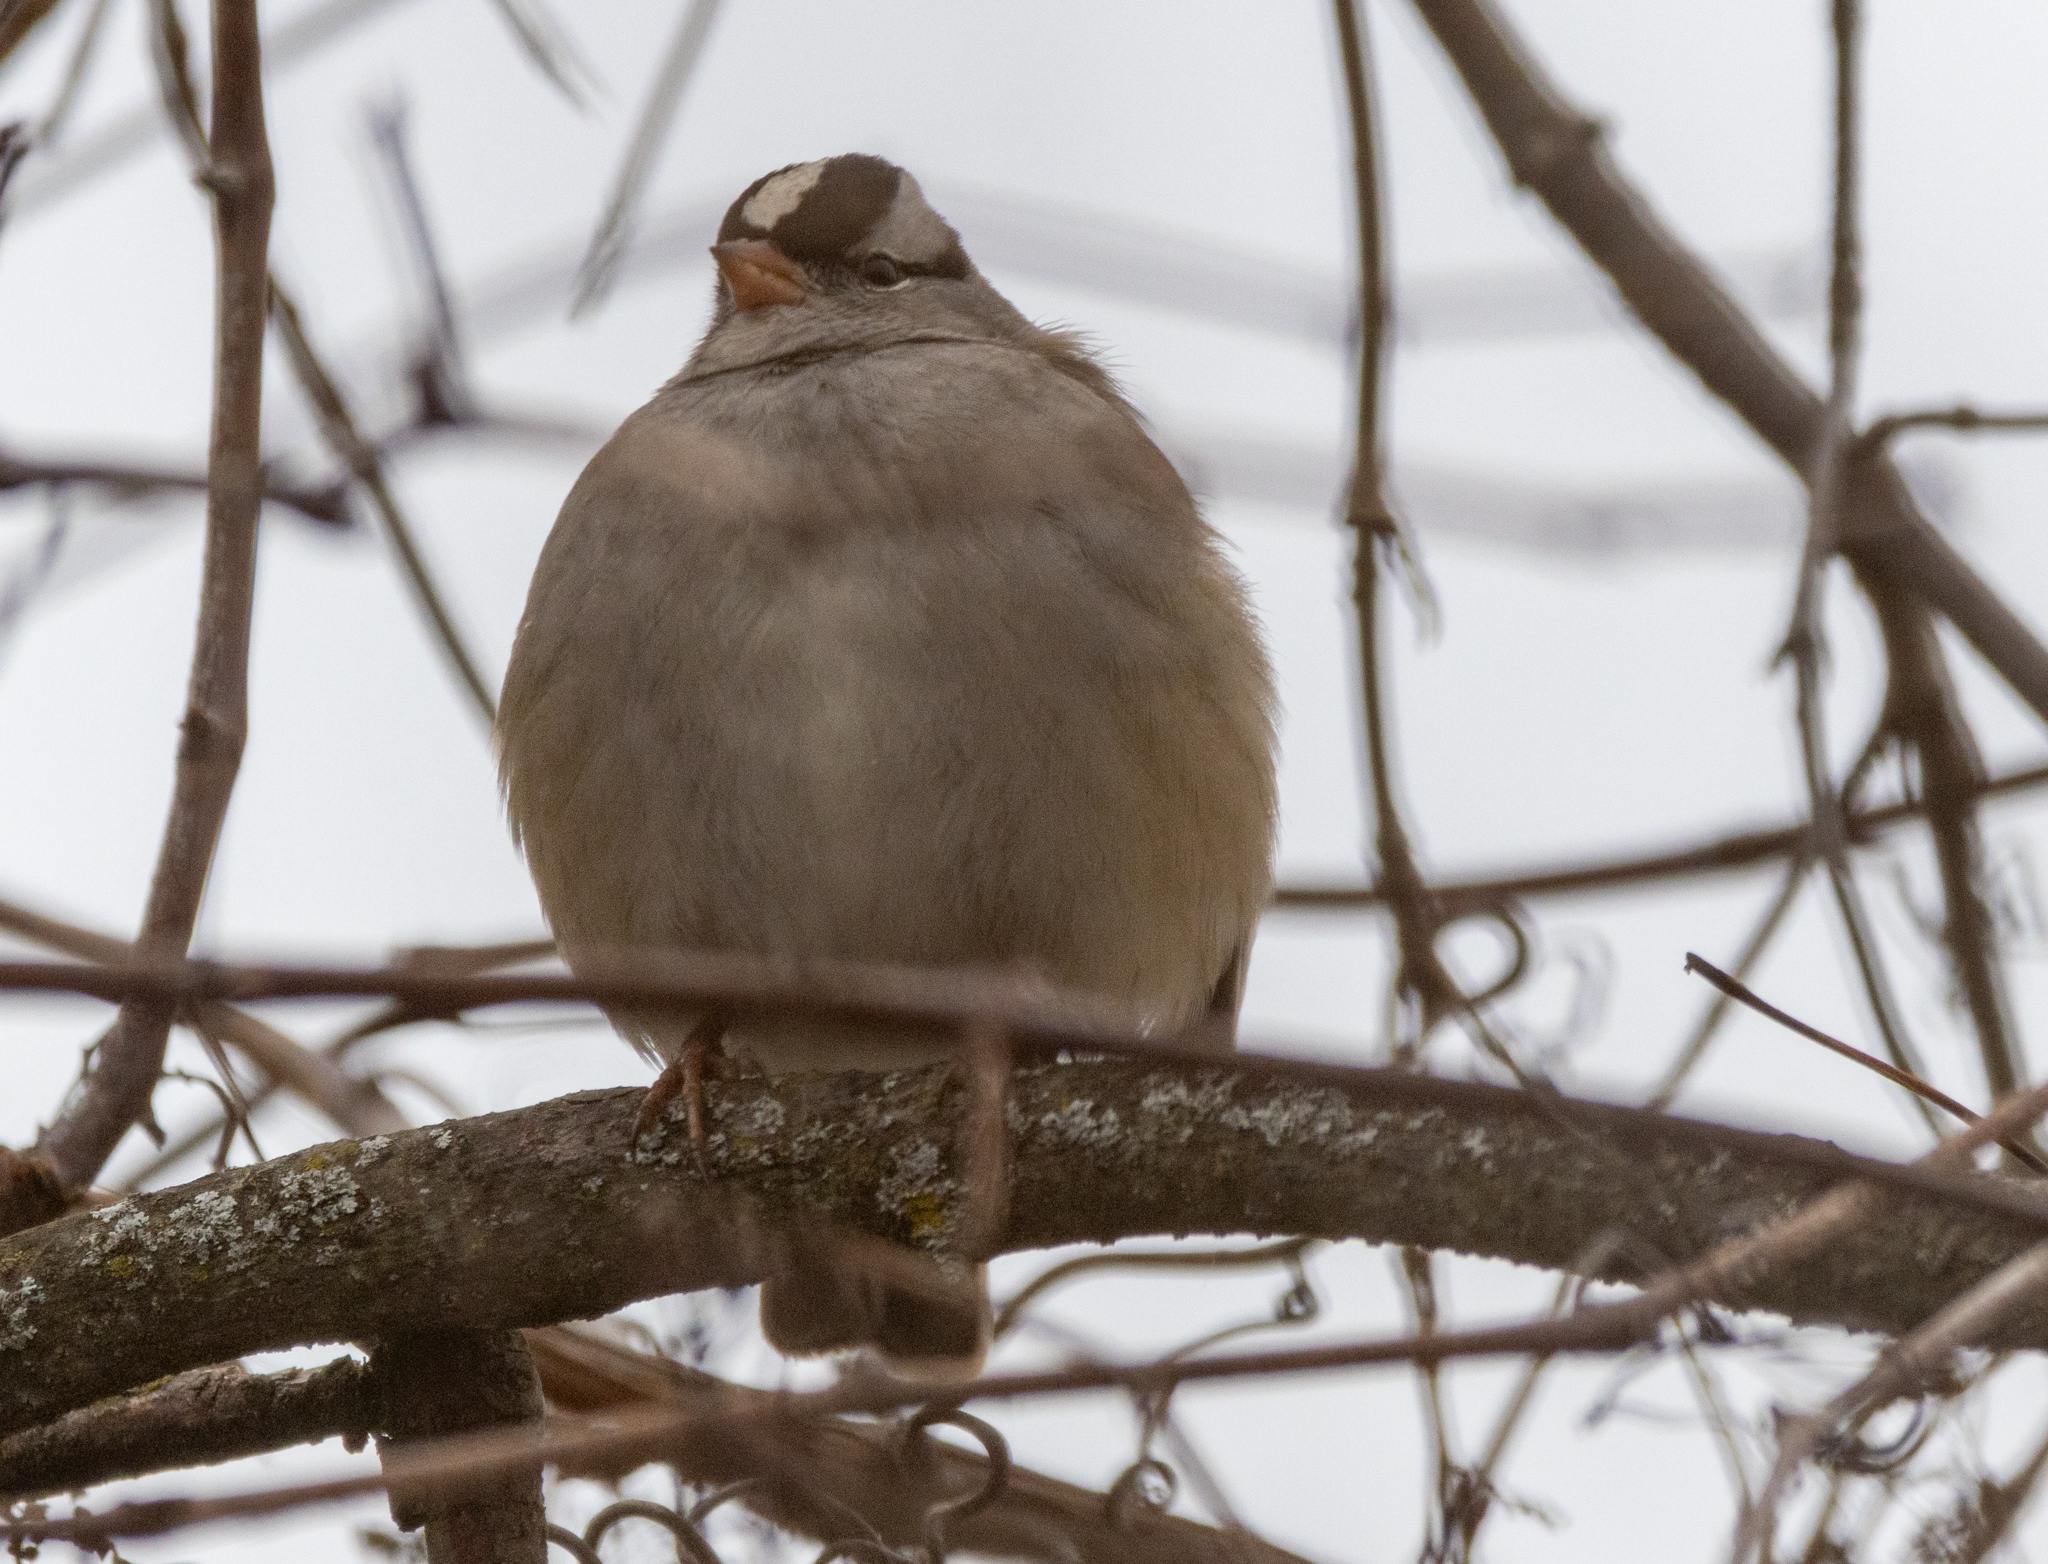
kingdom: Animalia
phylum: Chordata
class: Aves
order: Passeriformes
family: Passerellidae
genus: Zonotrichia
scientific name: Zonotrichia leucophrys
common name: White-crowned sparrow
